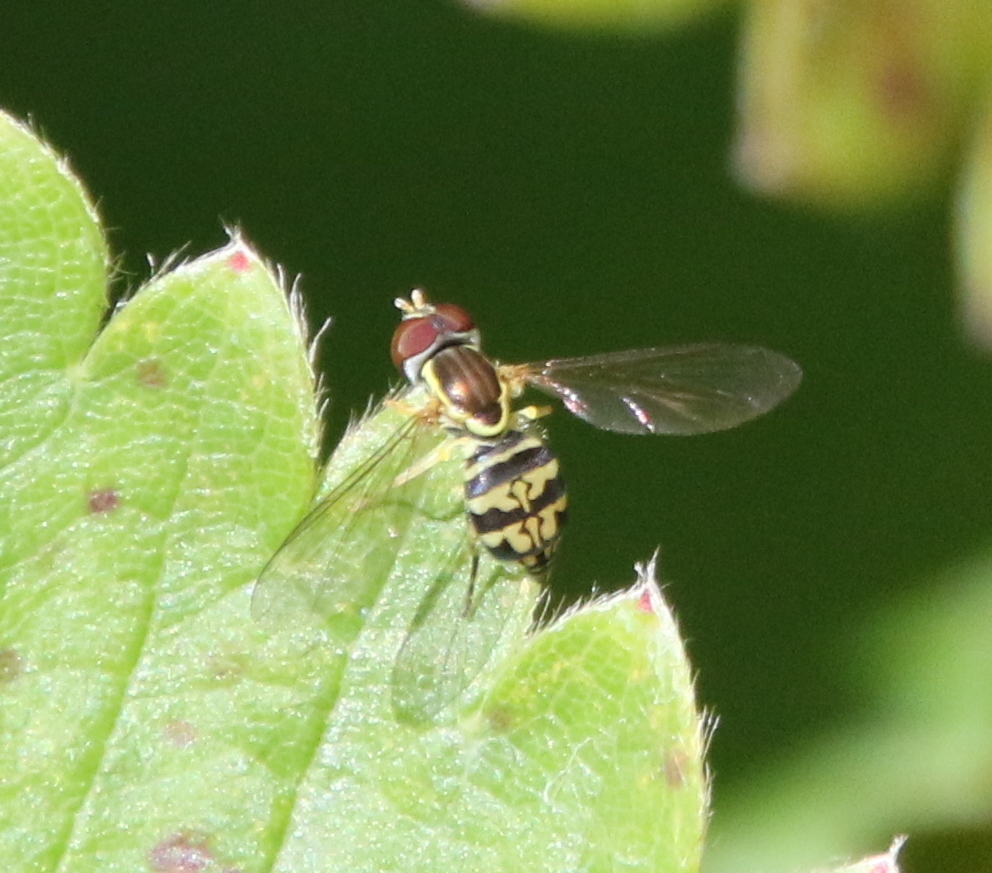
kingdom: Animalia
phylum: Arthropoda
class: Insecta
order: Diptera
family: Syrphidae
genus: Toxomerus
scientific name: Toxomerus geminatus
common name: Eastern calligrapher
